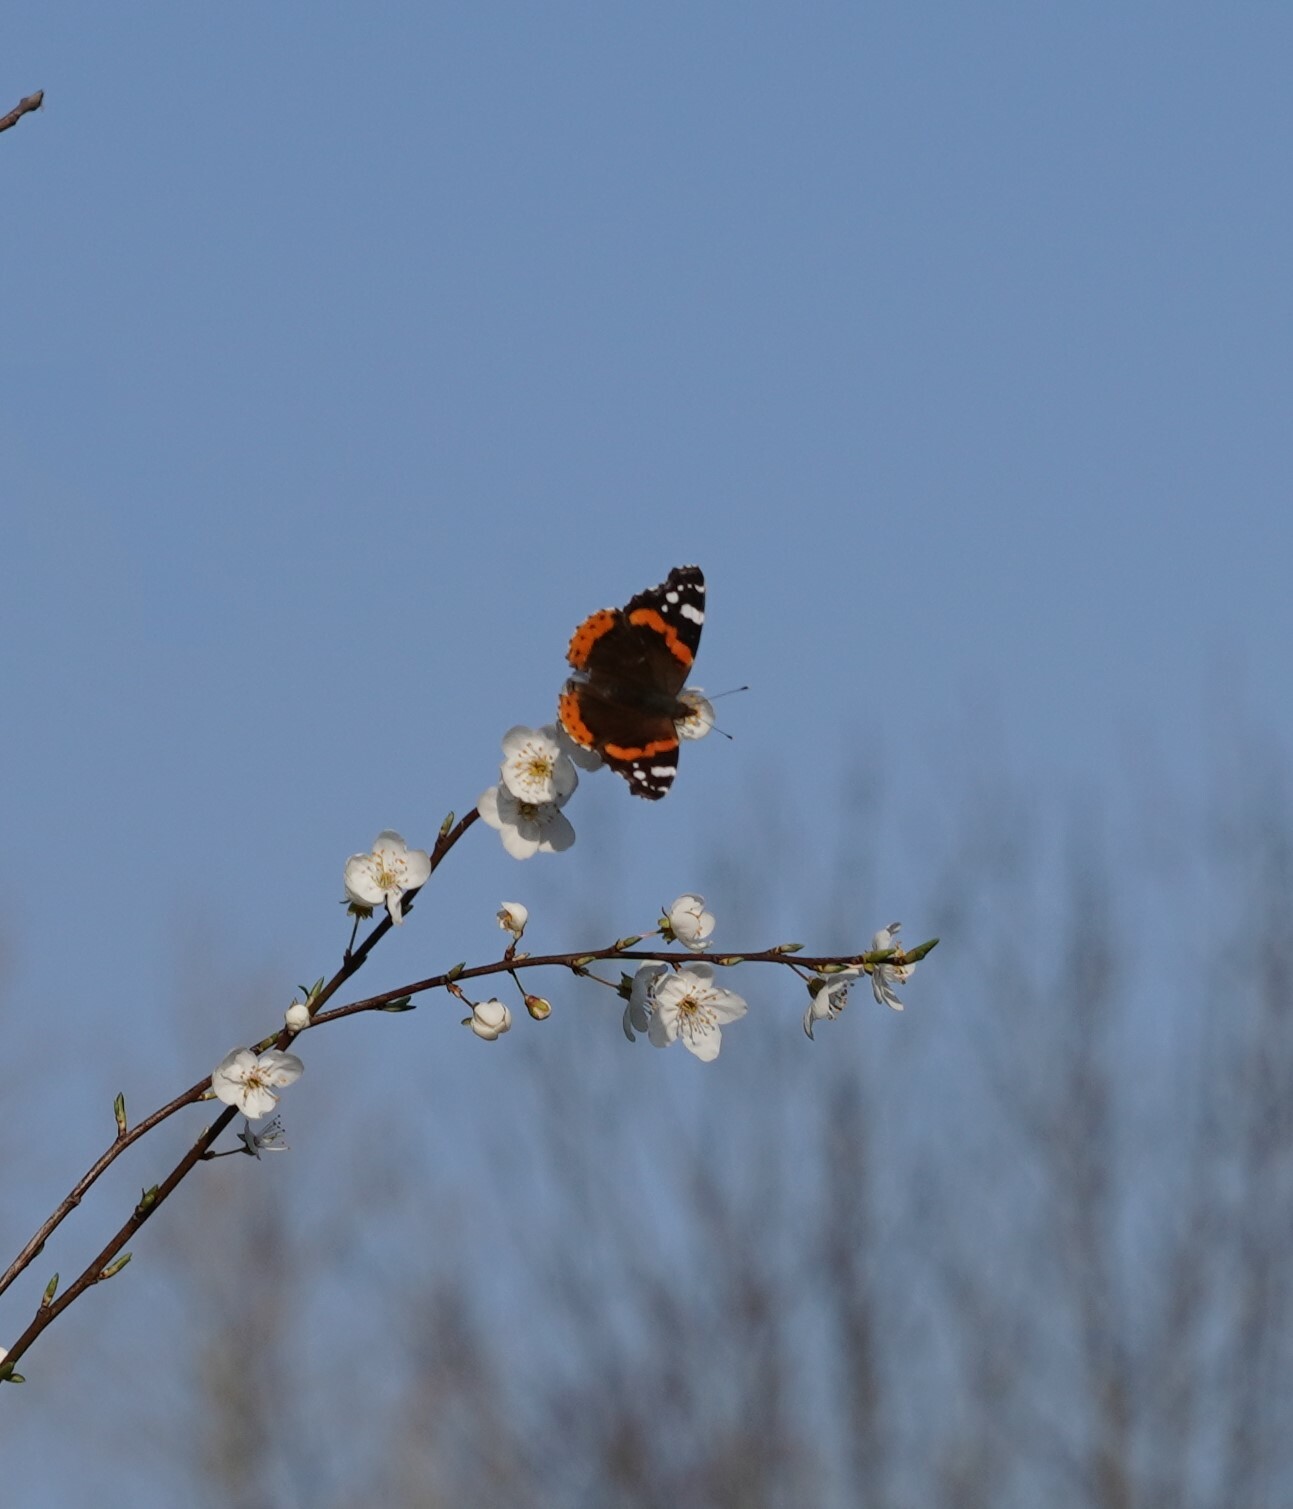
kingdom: Animalia
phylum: Arthropoda
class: Insecta
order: Lepidoptera
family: Nymphalidae
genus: Vanessa
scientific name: Vanessa atalanta
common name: Red admiral
